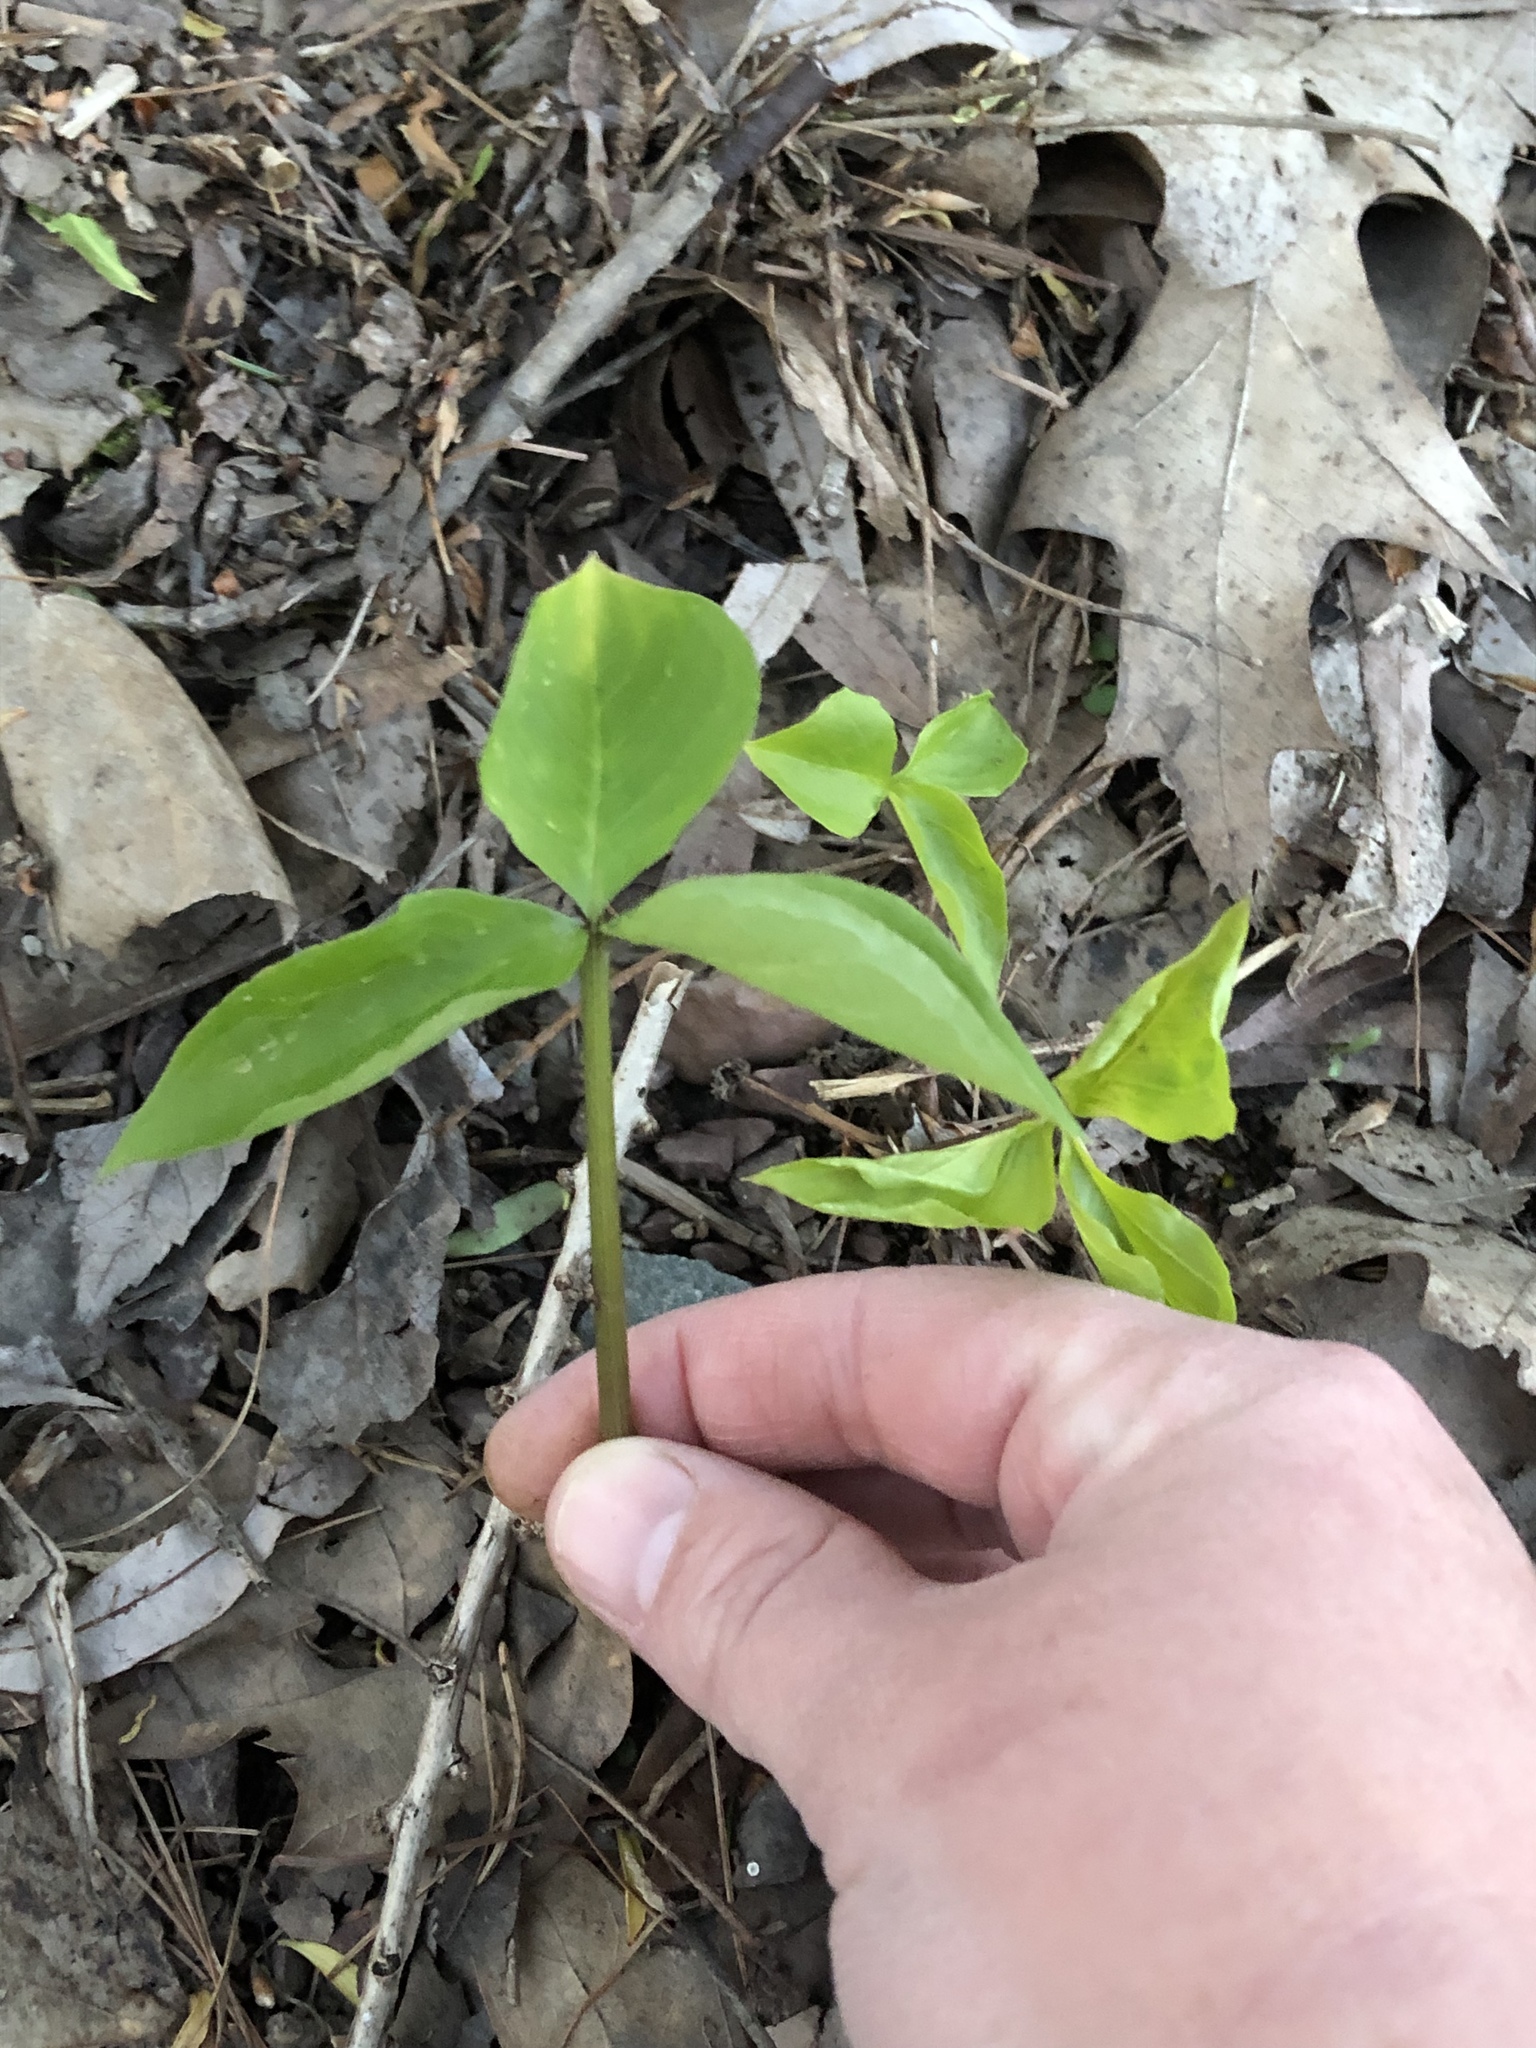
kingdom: Plantae
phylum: Tracheophyta
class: Liliopsida
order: Alismatales
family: Araceae
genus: Arisaema
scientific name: Arisaema triphyllum
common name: Jack-in-the-pulpit
